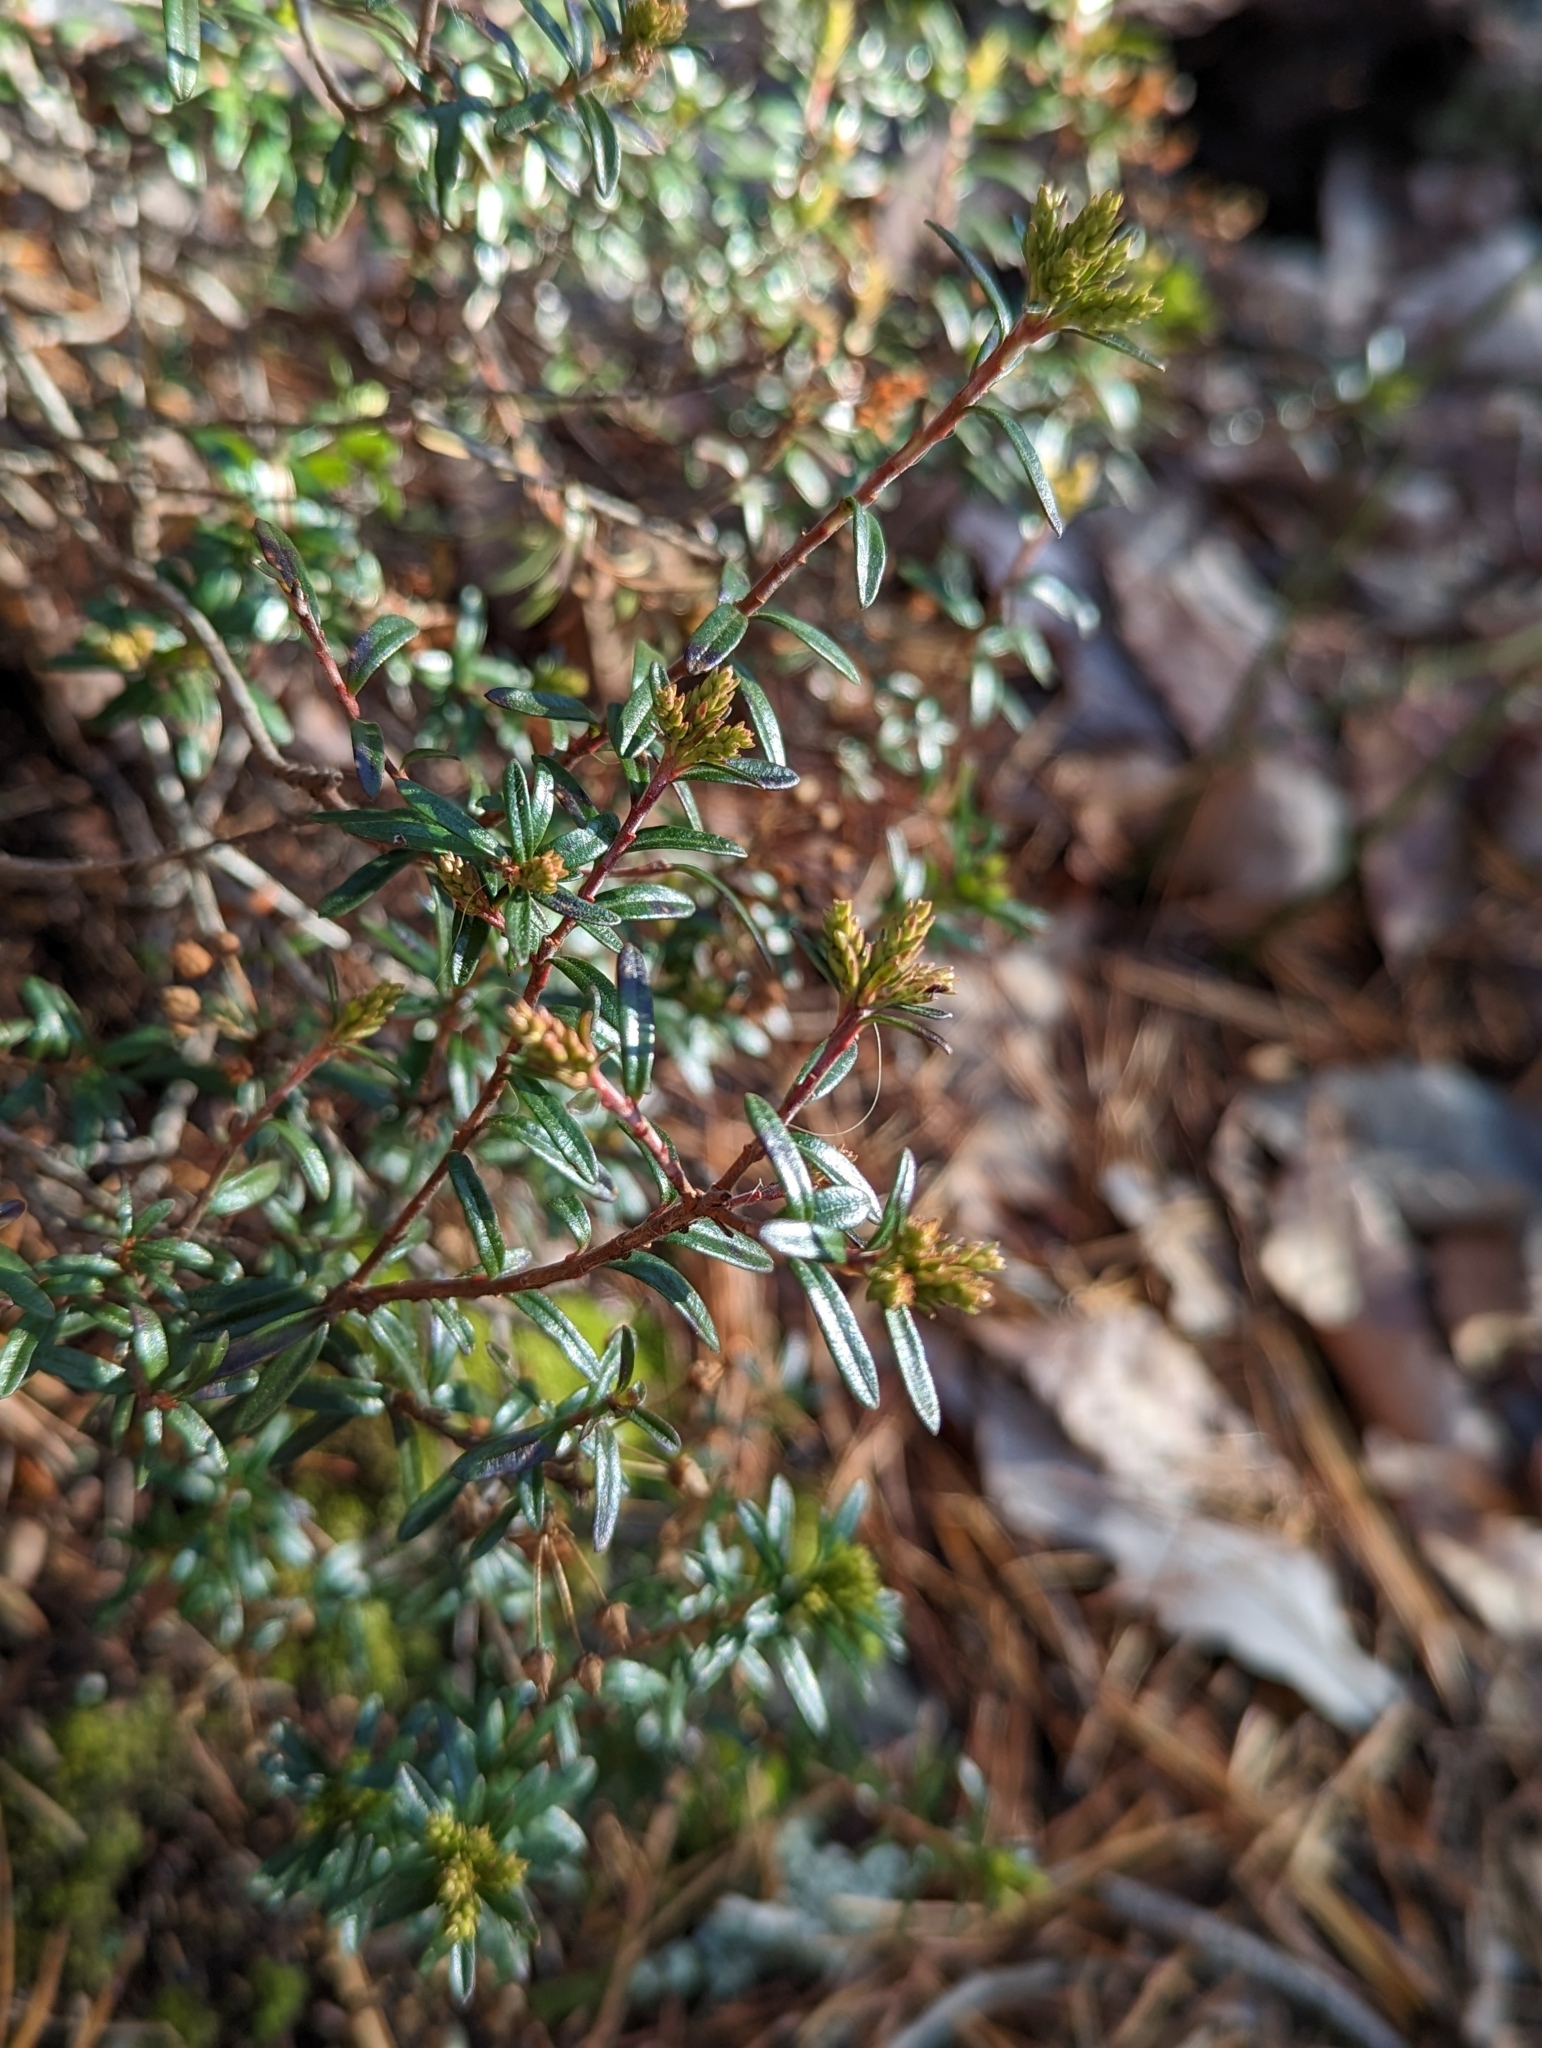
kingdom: Plantae
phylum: Tracheophyta
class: Magnoliopsida
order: Ericales
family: Ericaceae
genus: Kalmia
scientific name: Kalmia buxifolia
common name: Sandmyrtle
